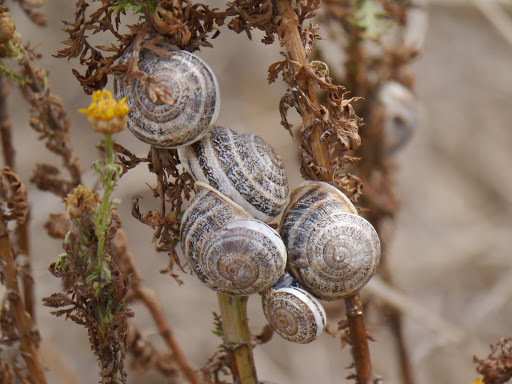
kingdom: Animalia
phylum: Mollusca
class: Gastropoda
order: Stylommatophora
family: Helicidae
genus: Otala
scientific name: Otala lactea
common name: Milk snail
